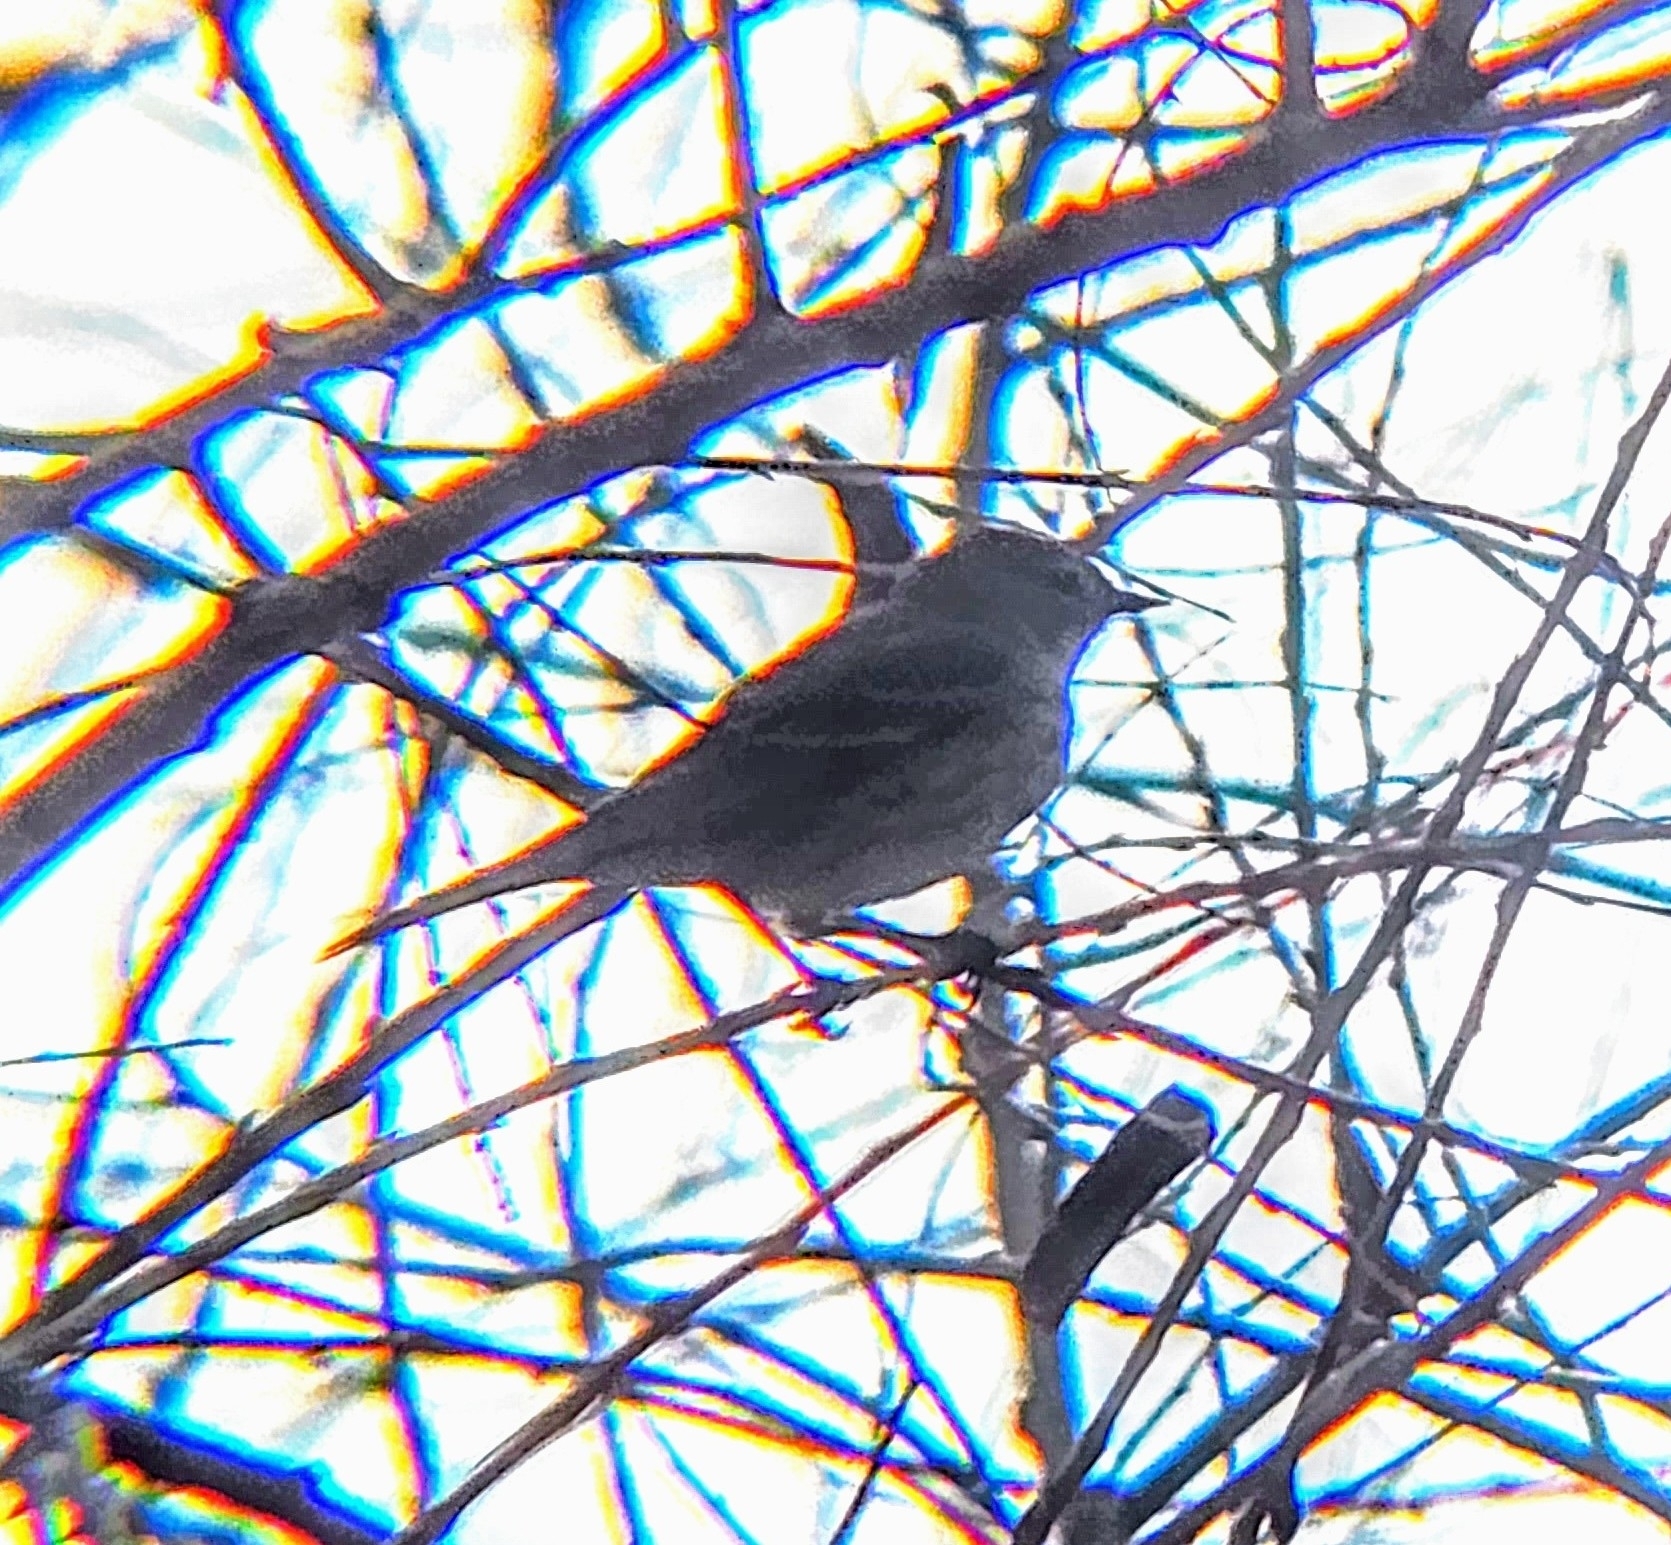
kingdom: Animalia
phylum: Chordata
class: Aves
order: Passeriformes
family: Parulidae
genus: Setophaga
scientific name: Setophaga coronata
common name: Myrtle warbler
